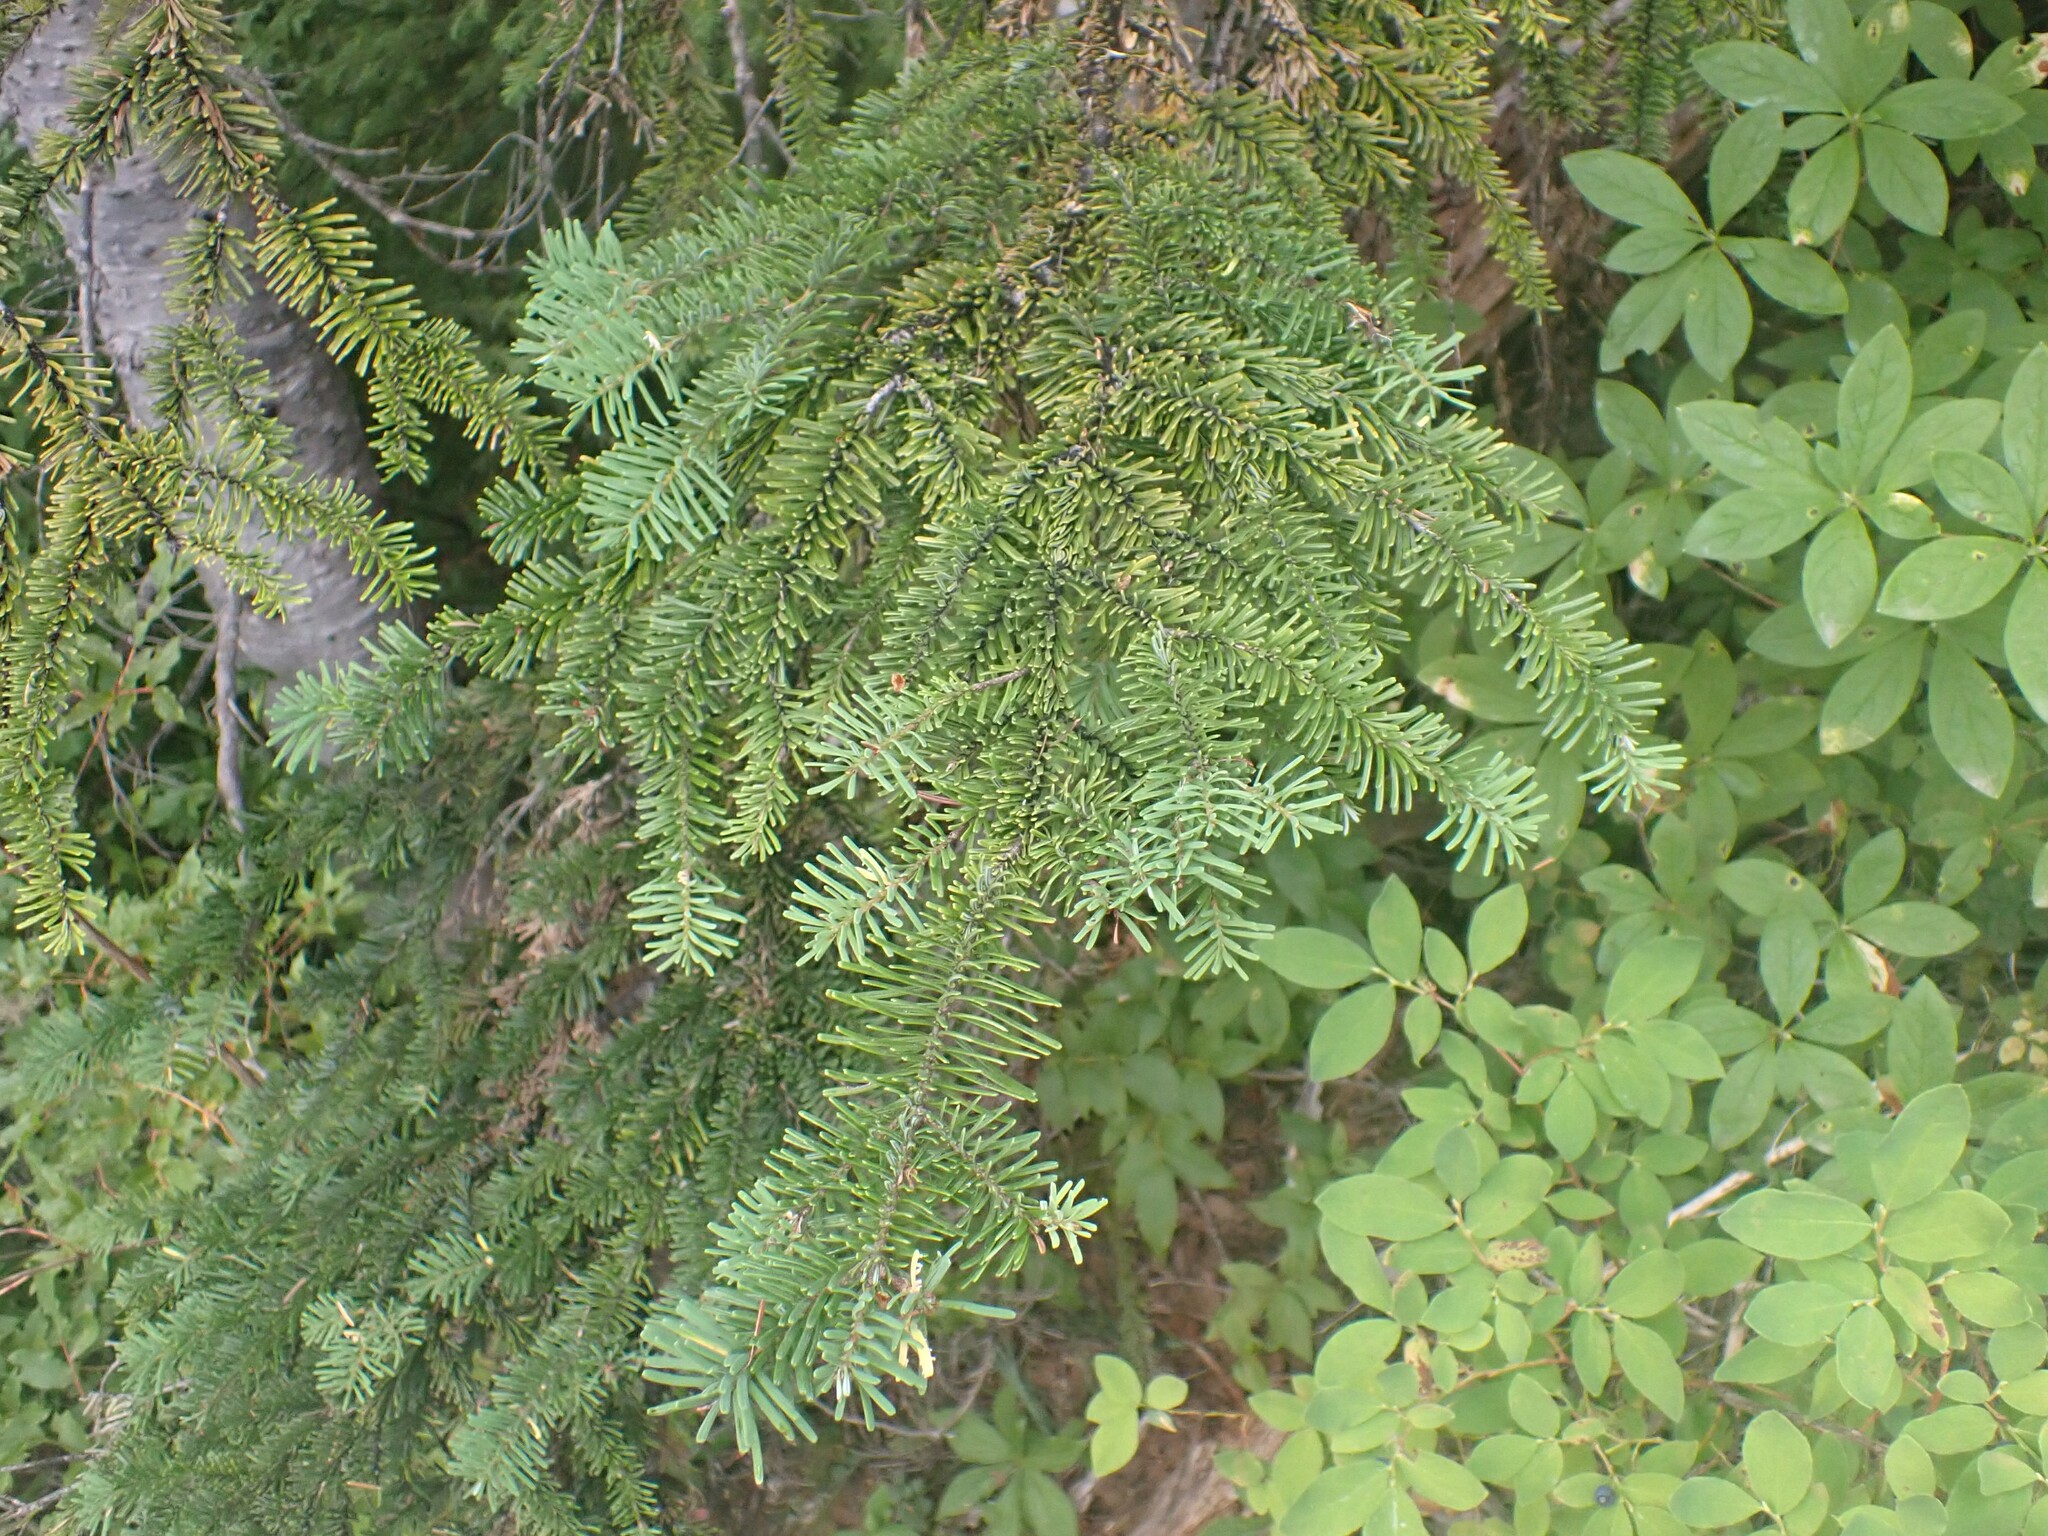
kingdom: Plantae
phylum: Tracheophyta
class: Pinopsida
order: Pinales
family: Pinaceae
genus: Abies
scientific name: Abies amabilis
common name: Pacific silver fir
